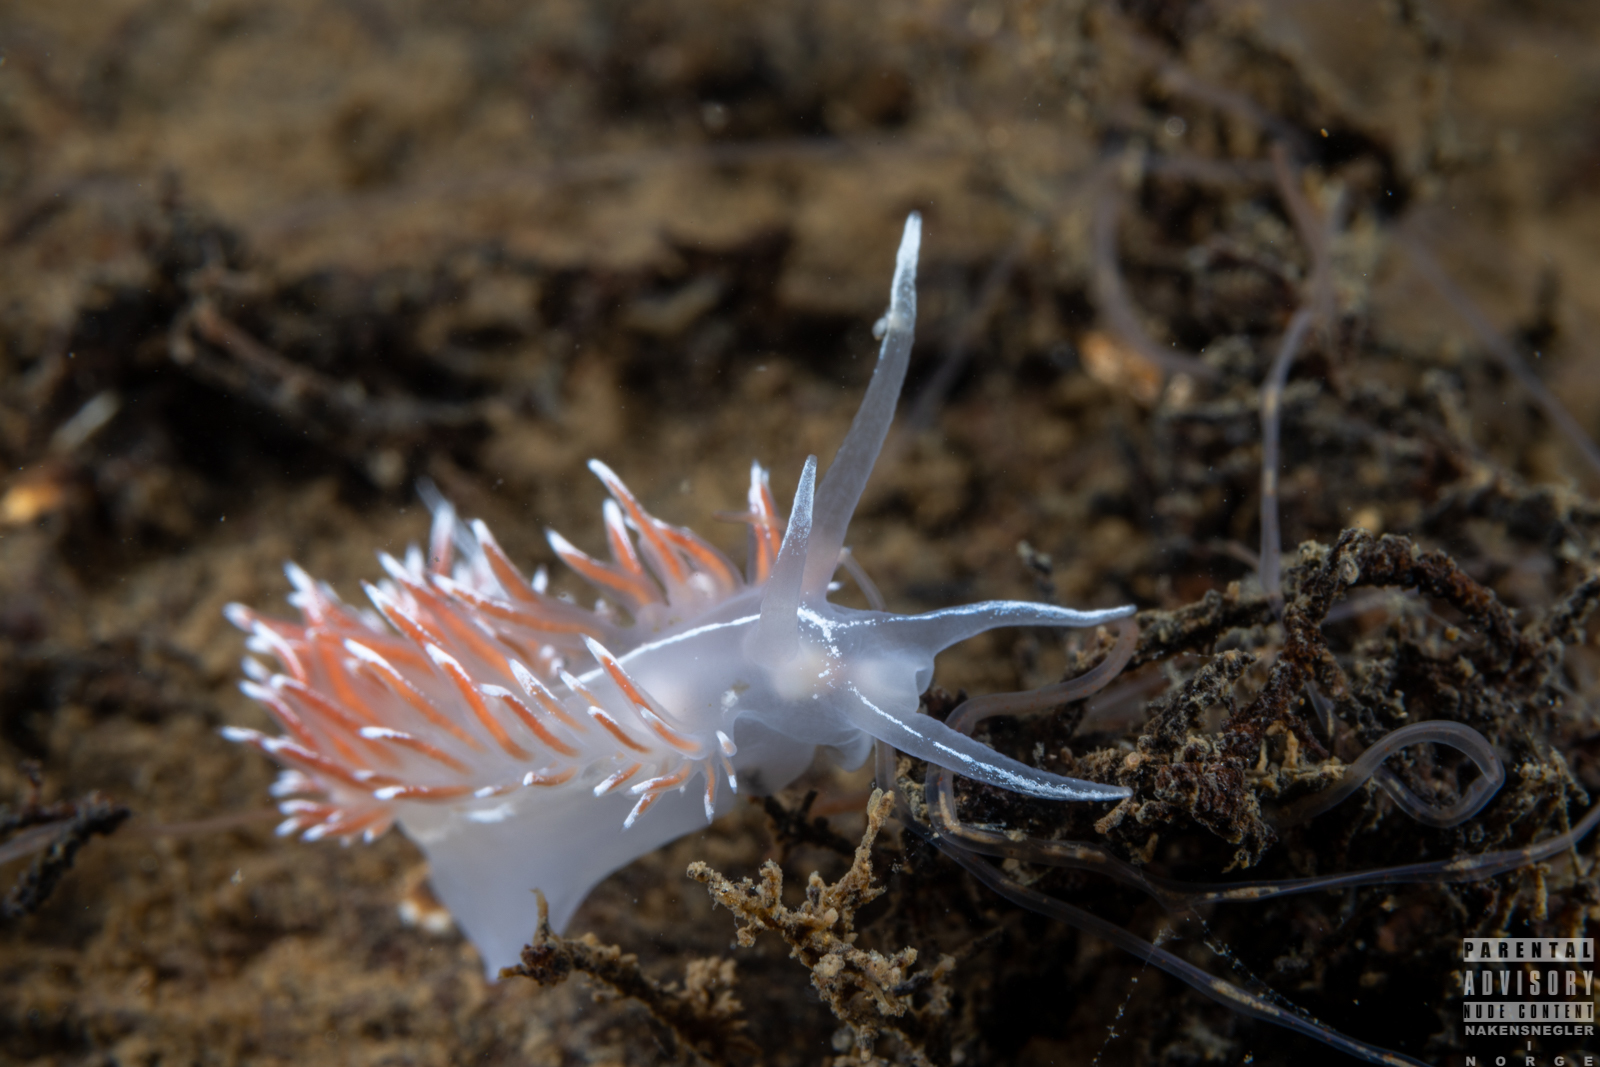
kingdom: Animalia
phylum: Mollusca
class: Gastropoda
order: Nudibranchia
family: Coryphellidae
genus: Coryphella
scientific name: Coryphella lineata
